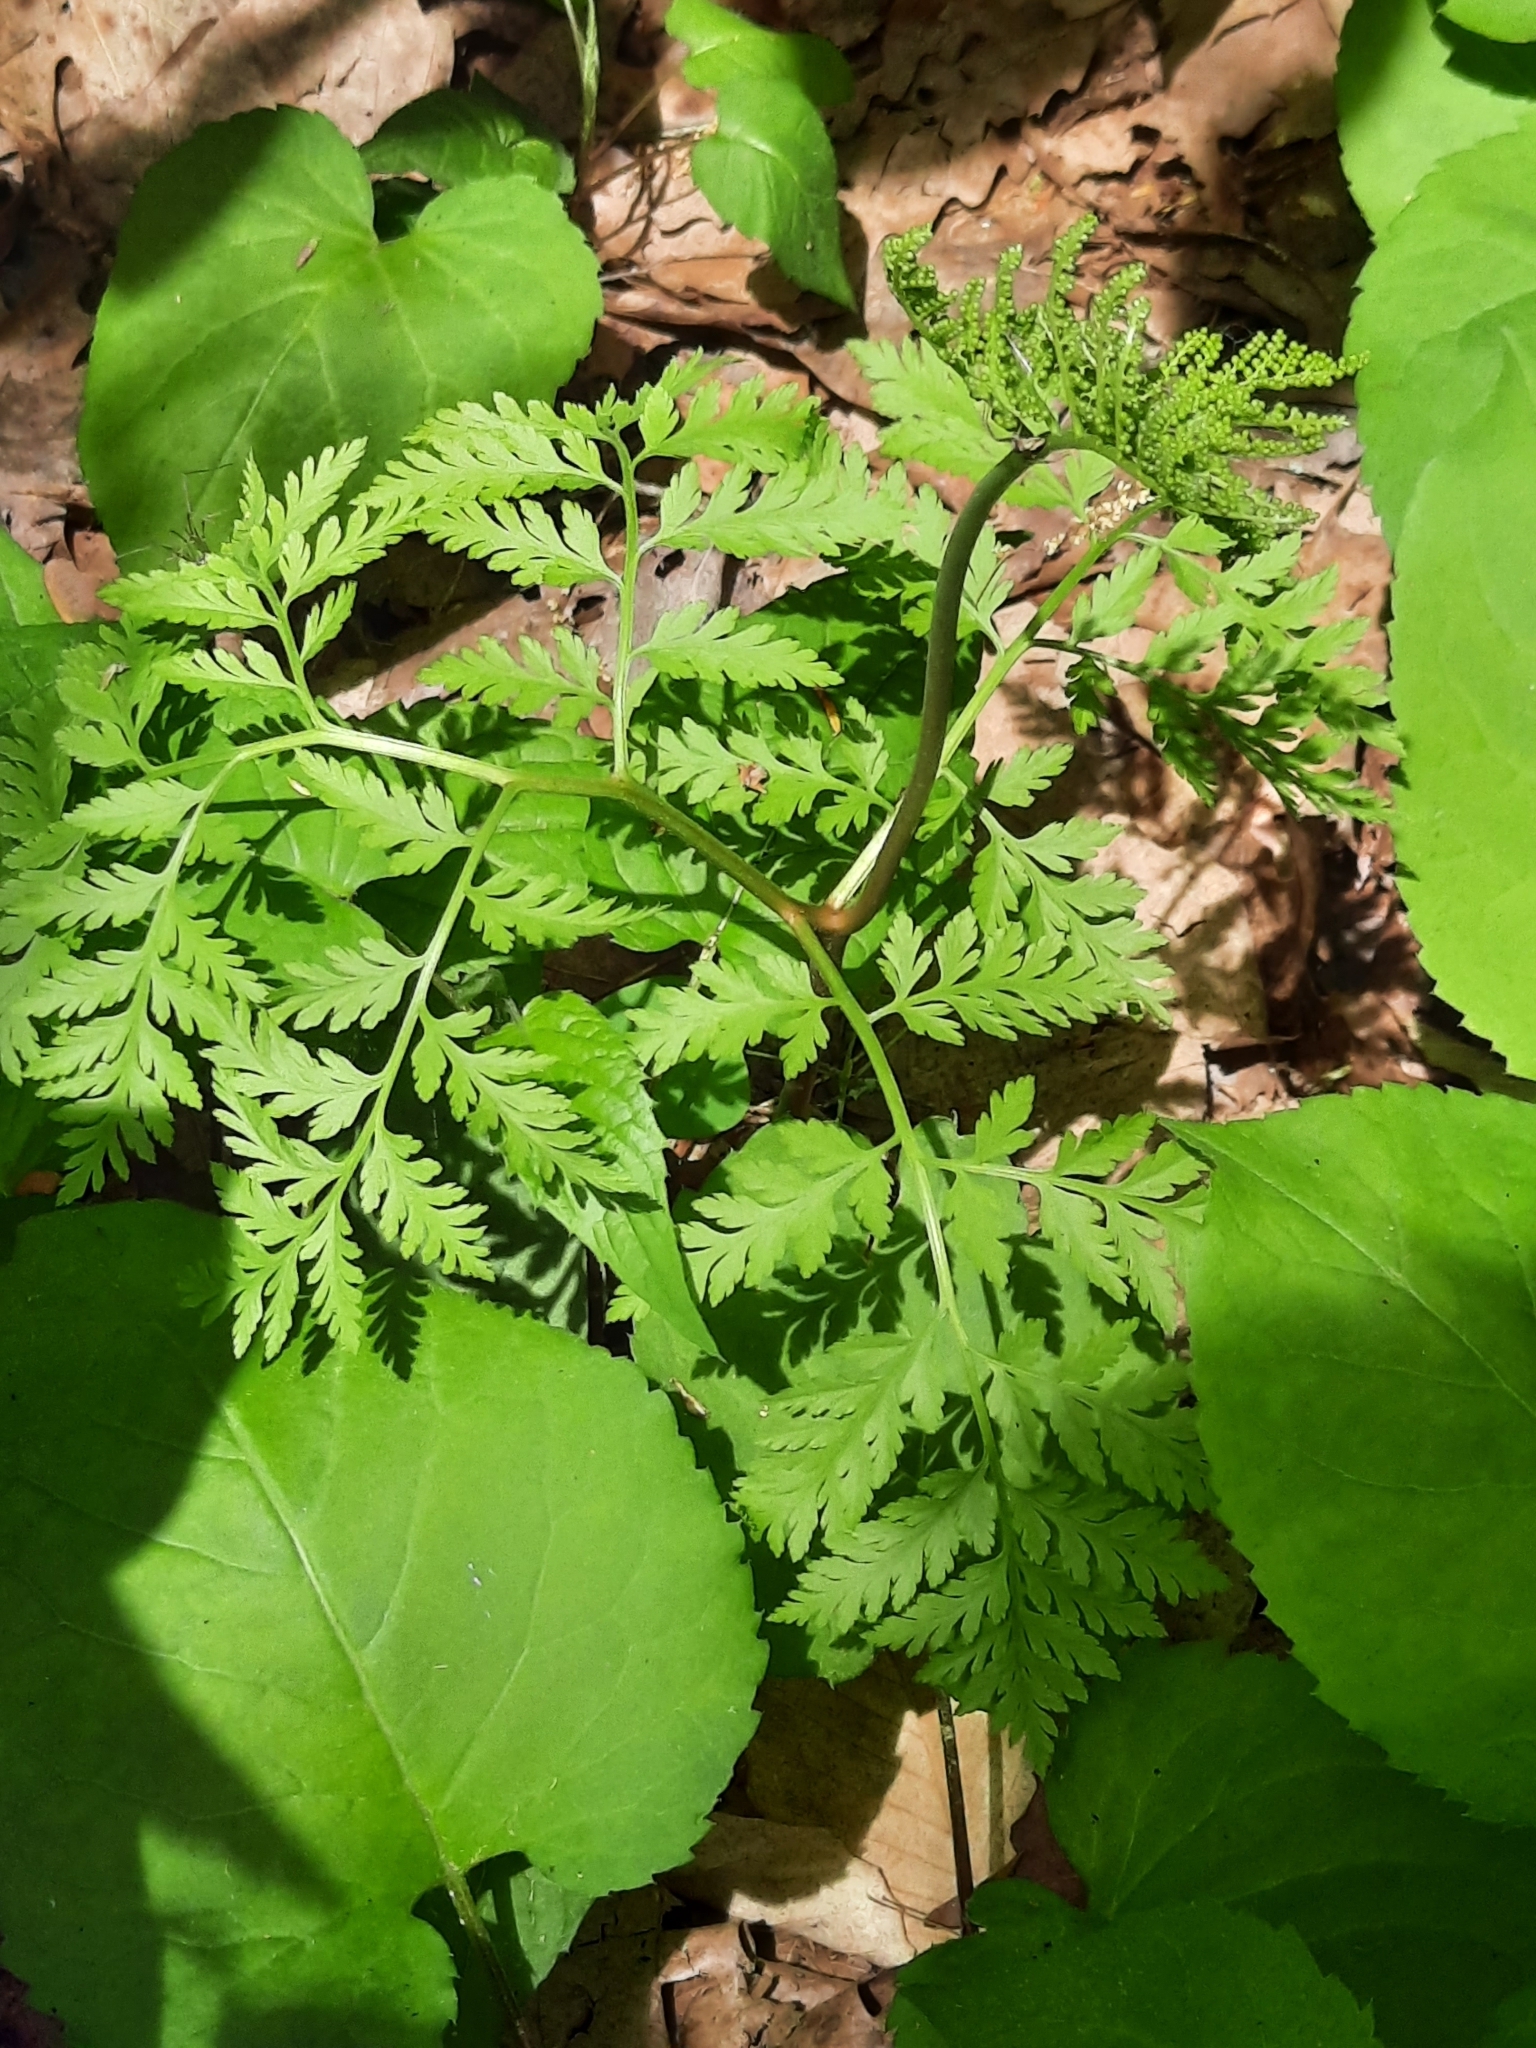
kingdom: Plantae
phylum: Tracheophyta
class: Polypodiopsida
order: Ophioglossales
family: Ophioglossaceae
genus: Botrypus
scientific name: Botrypus virginianus
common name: Common grapefern
